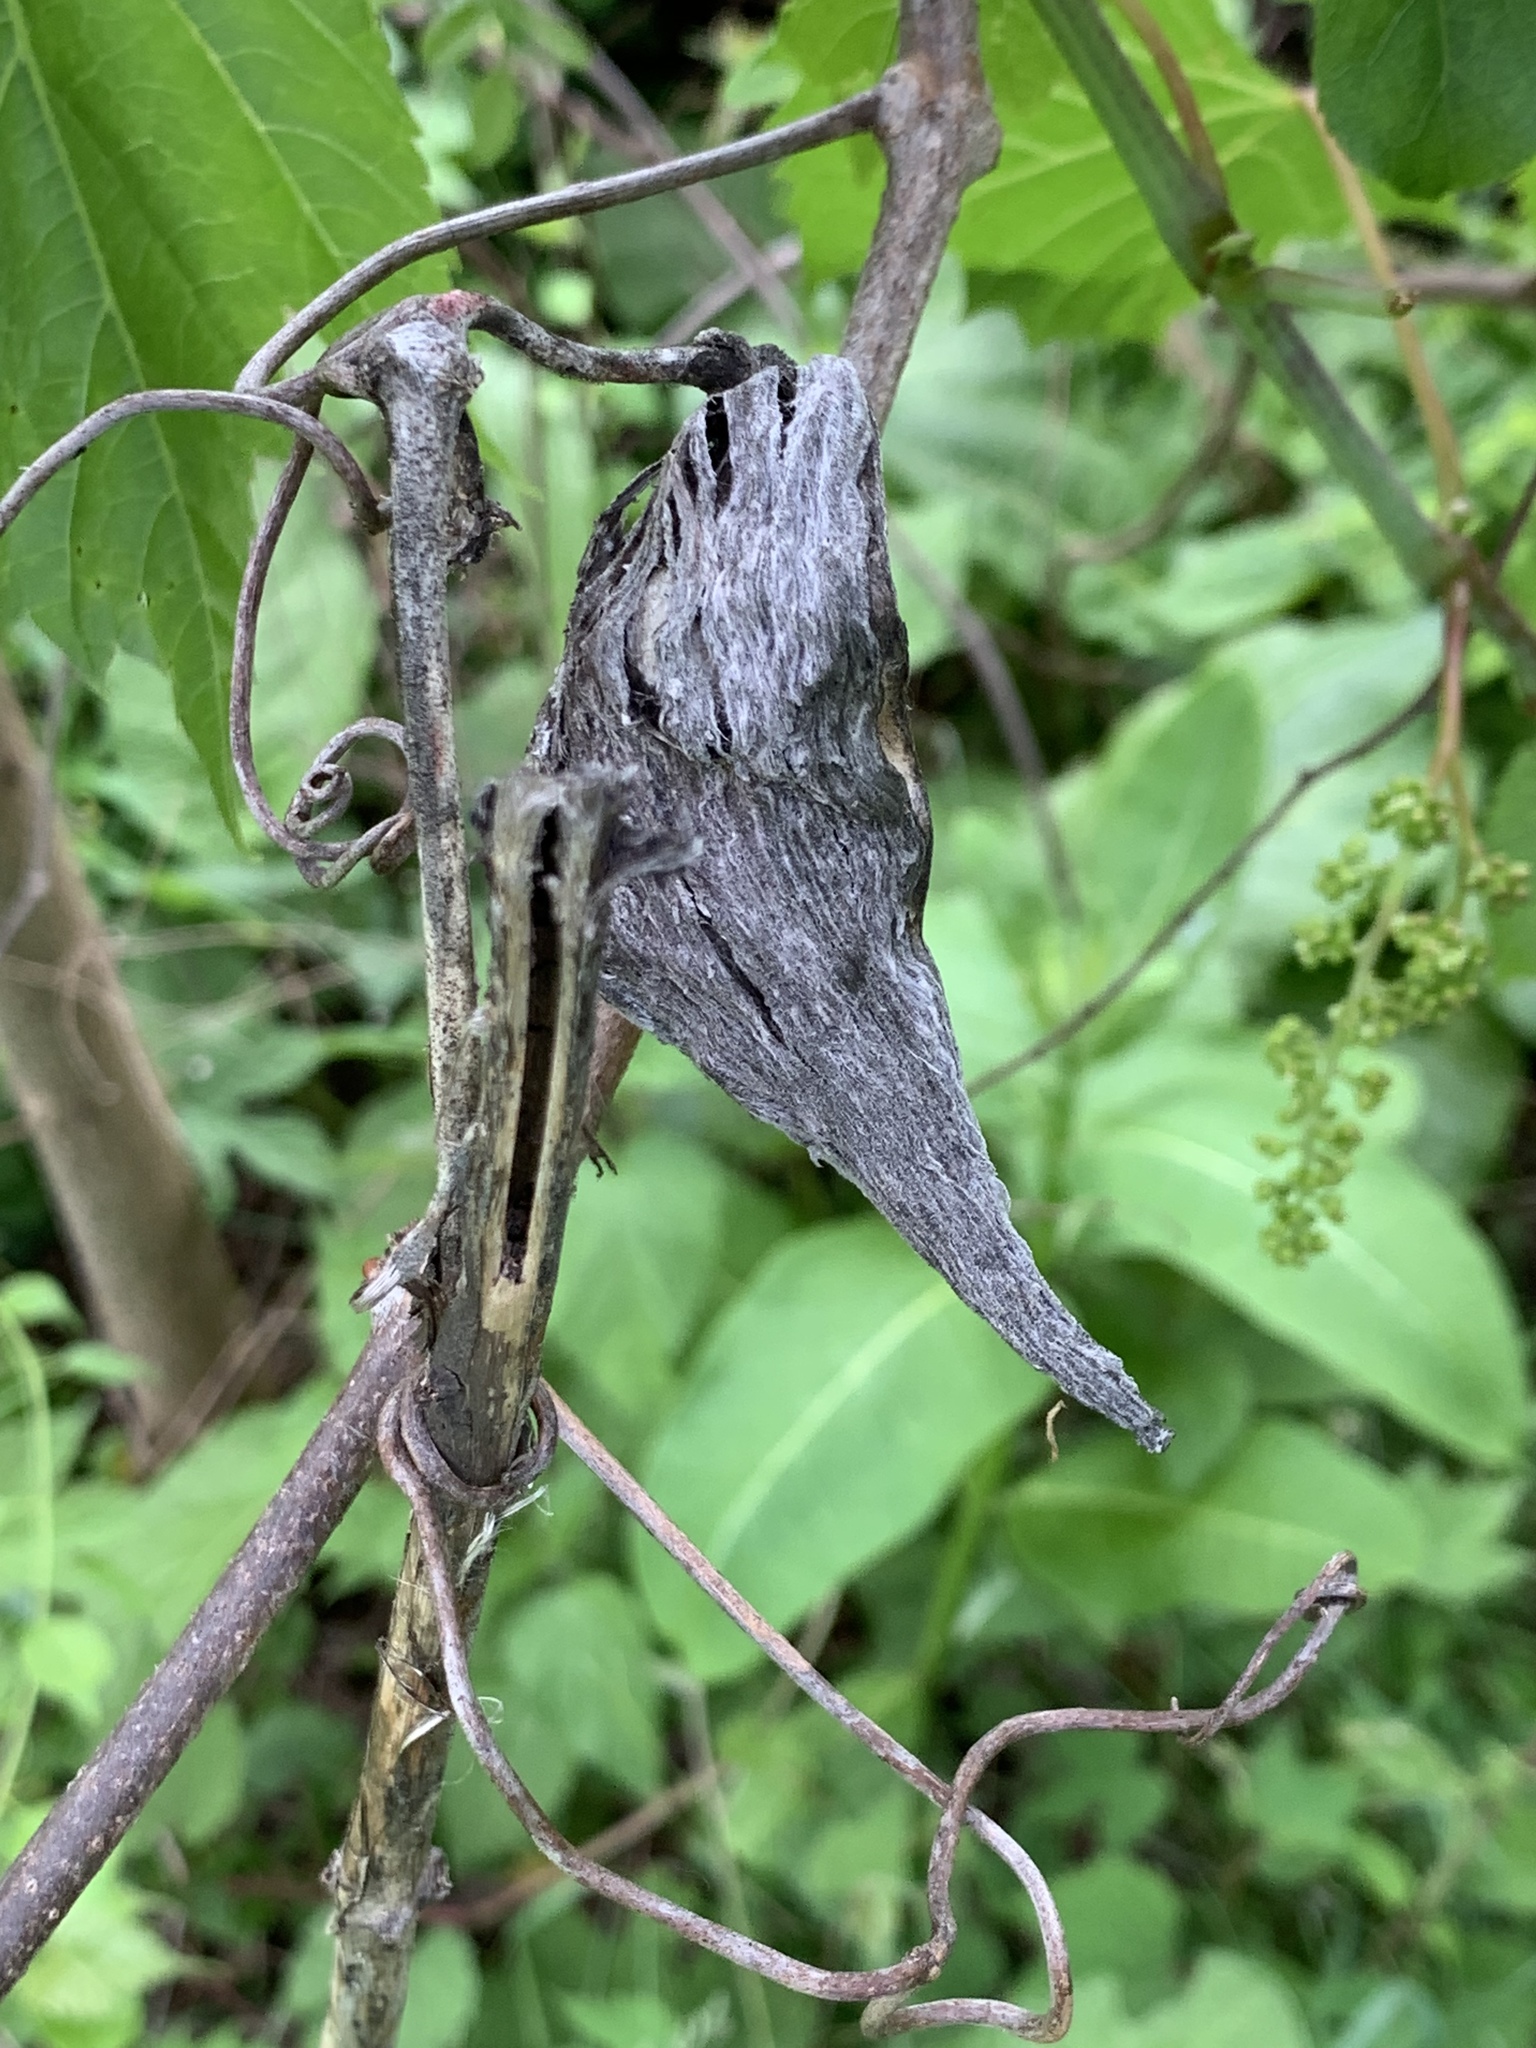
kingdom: Plantae
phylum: Tracheophyta
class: Magnoliopsida
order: Gentianales
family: Apocynaceae
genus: Asclepias
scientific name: Asclepias syriaca
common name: Common milkweed
